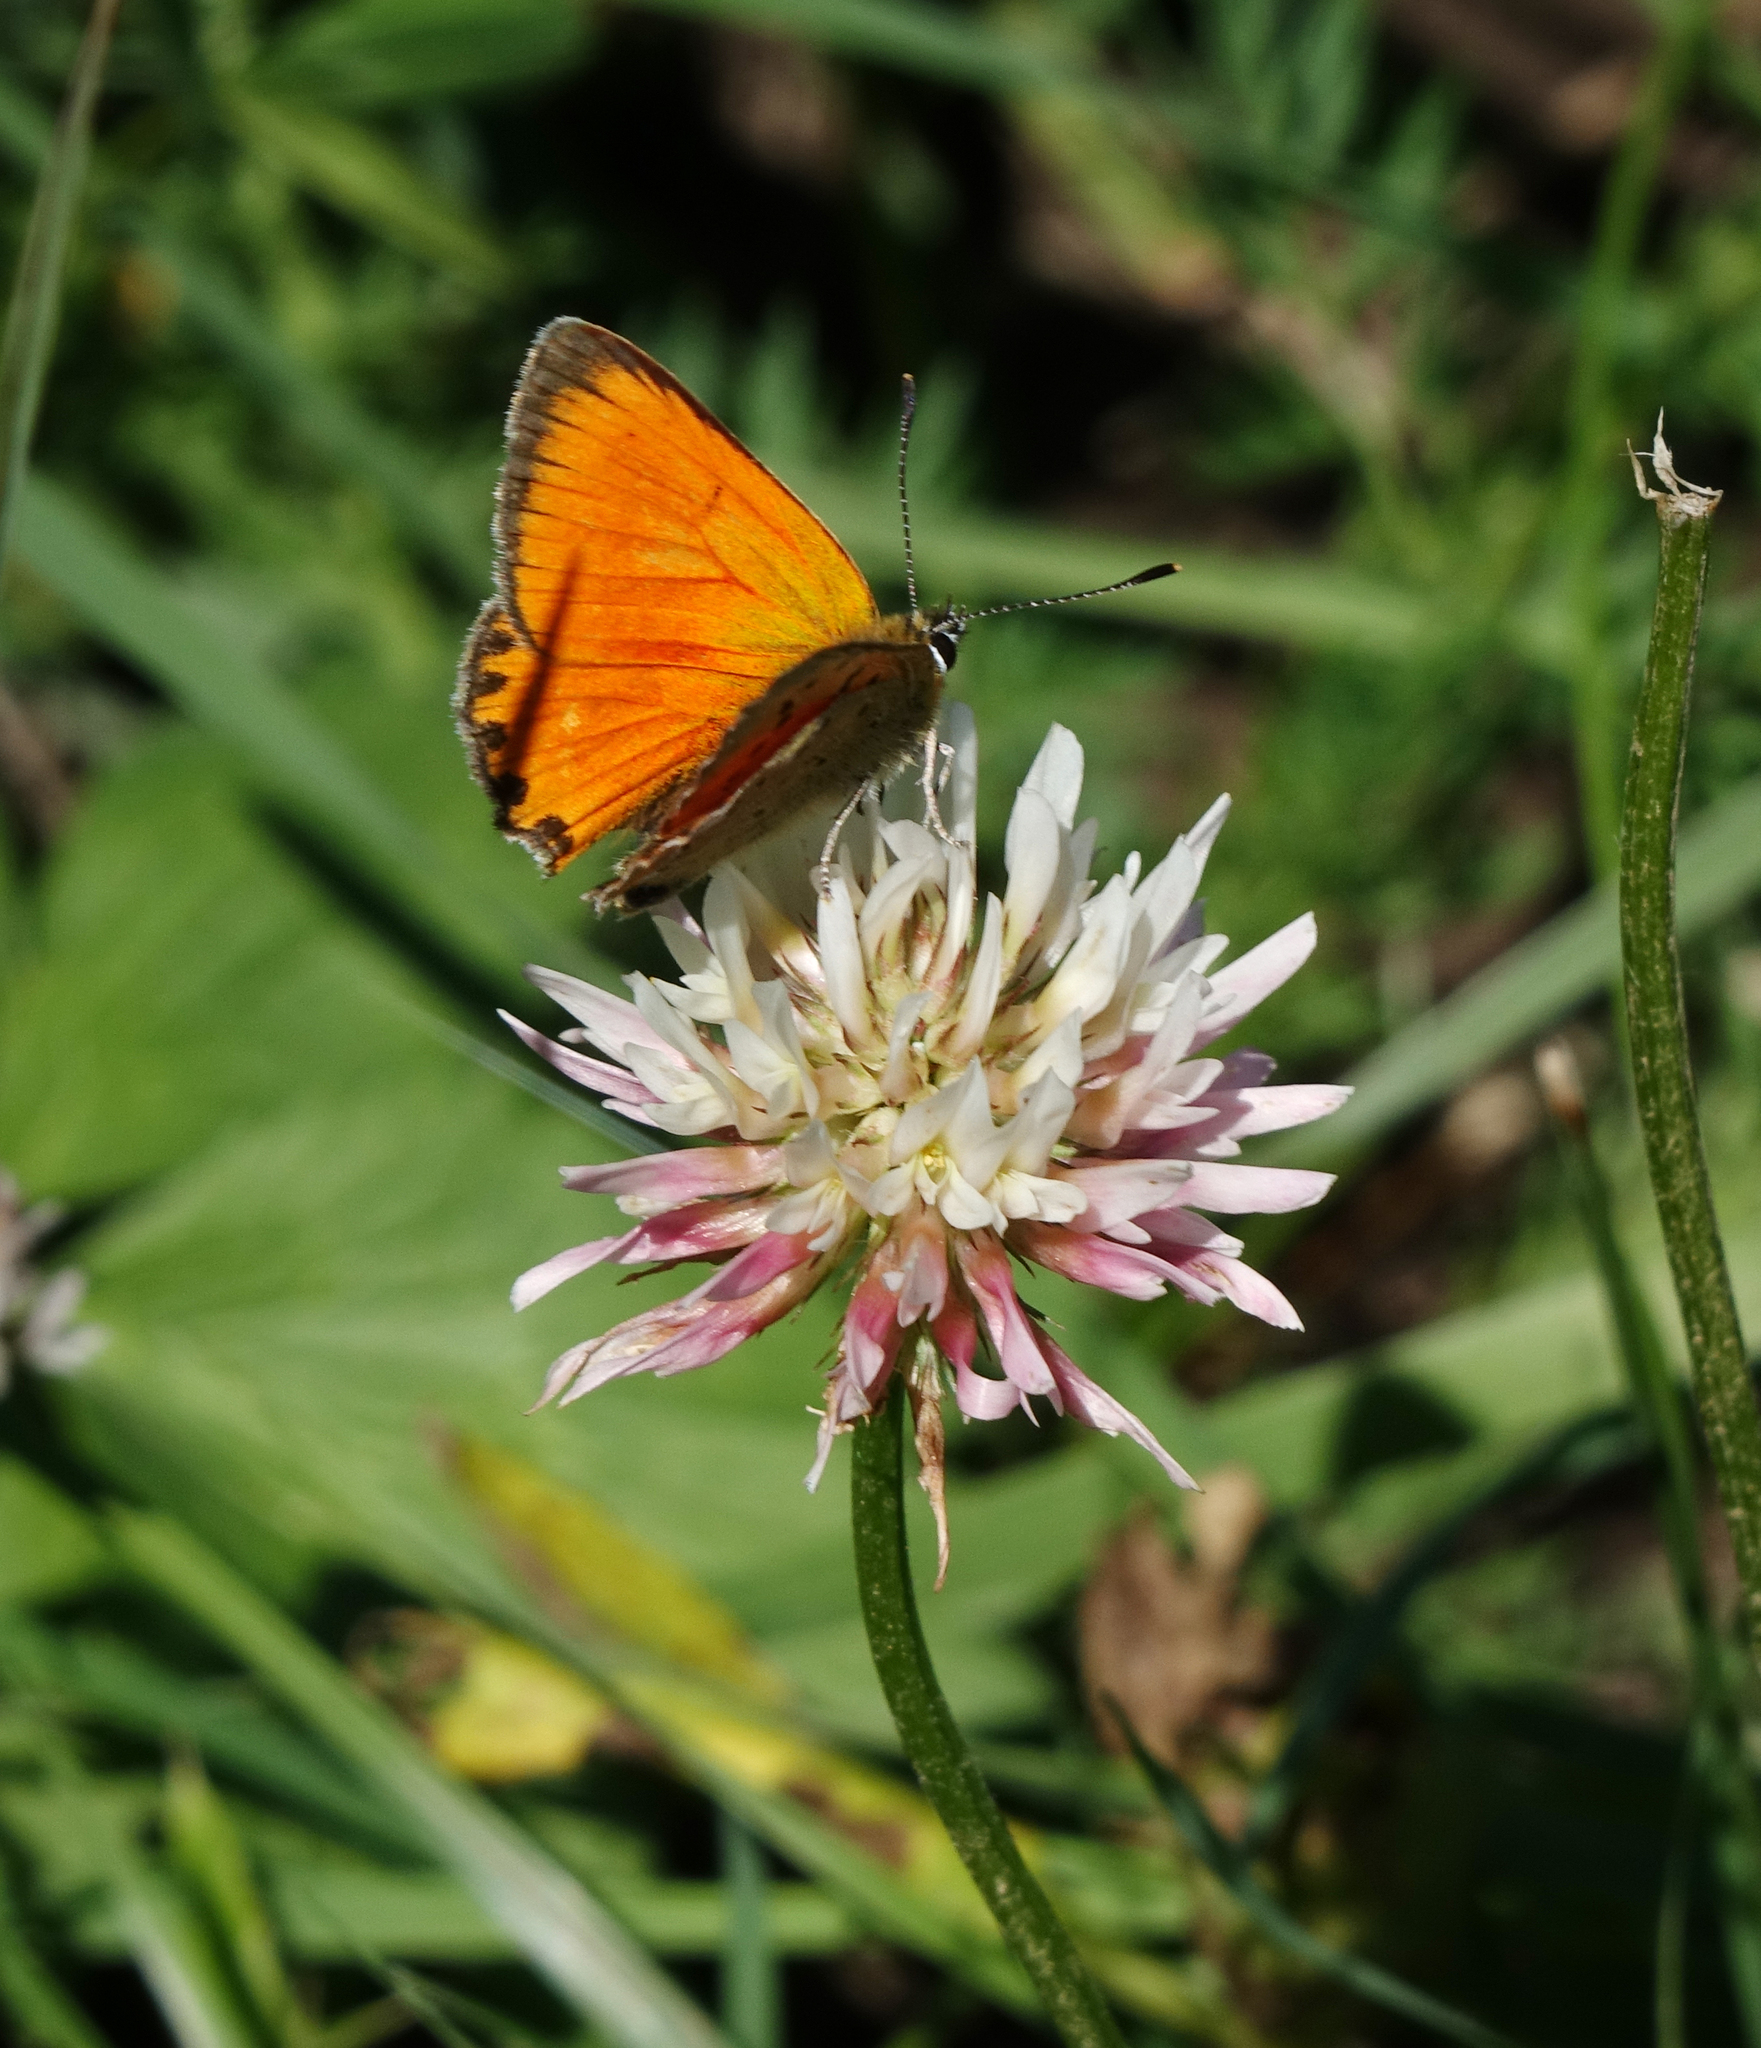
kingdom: Animalia
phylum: Arthropoda
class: Insecta
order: Lepidoptera
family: Lycaenidae
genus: Lycaena
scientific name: Lycaena virgaureae
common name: Scarce copper
